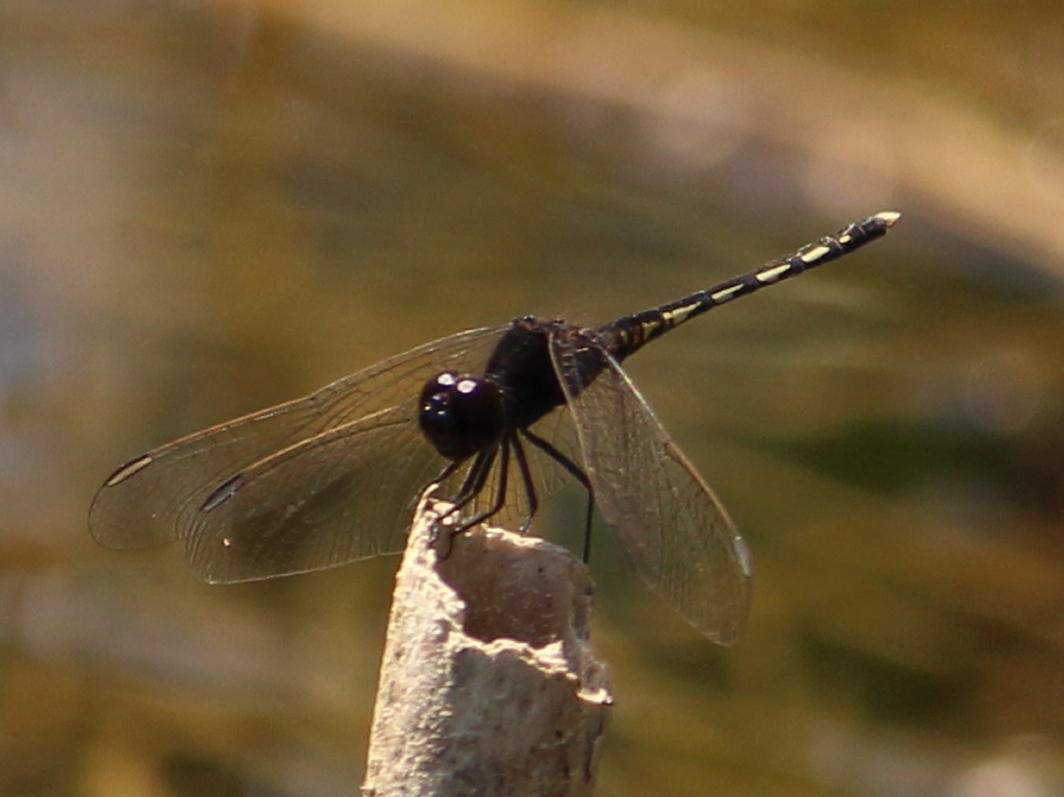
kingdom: Animalia
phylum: Arthropoda
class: Insecta
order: Odonata
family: Libellulidae
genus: Diplacodes
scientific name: Diplacodes lefebvrii
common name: Black percher
